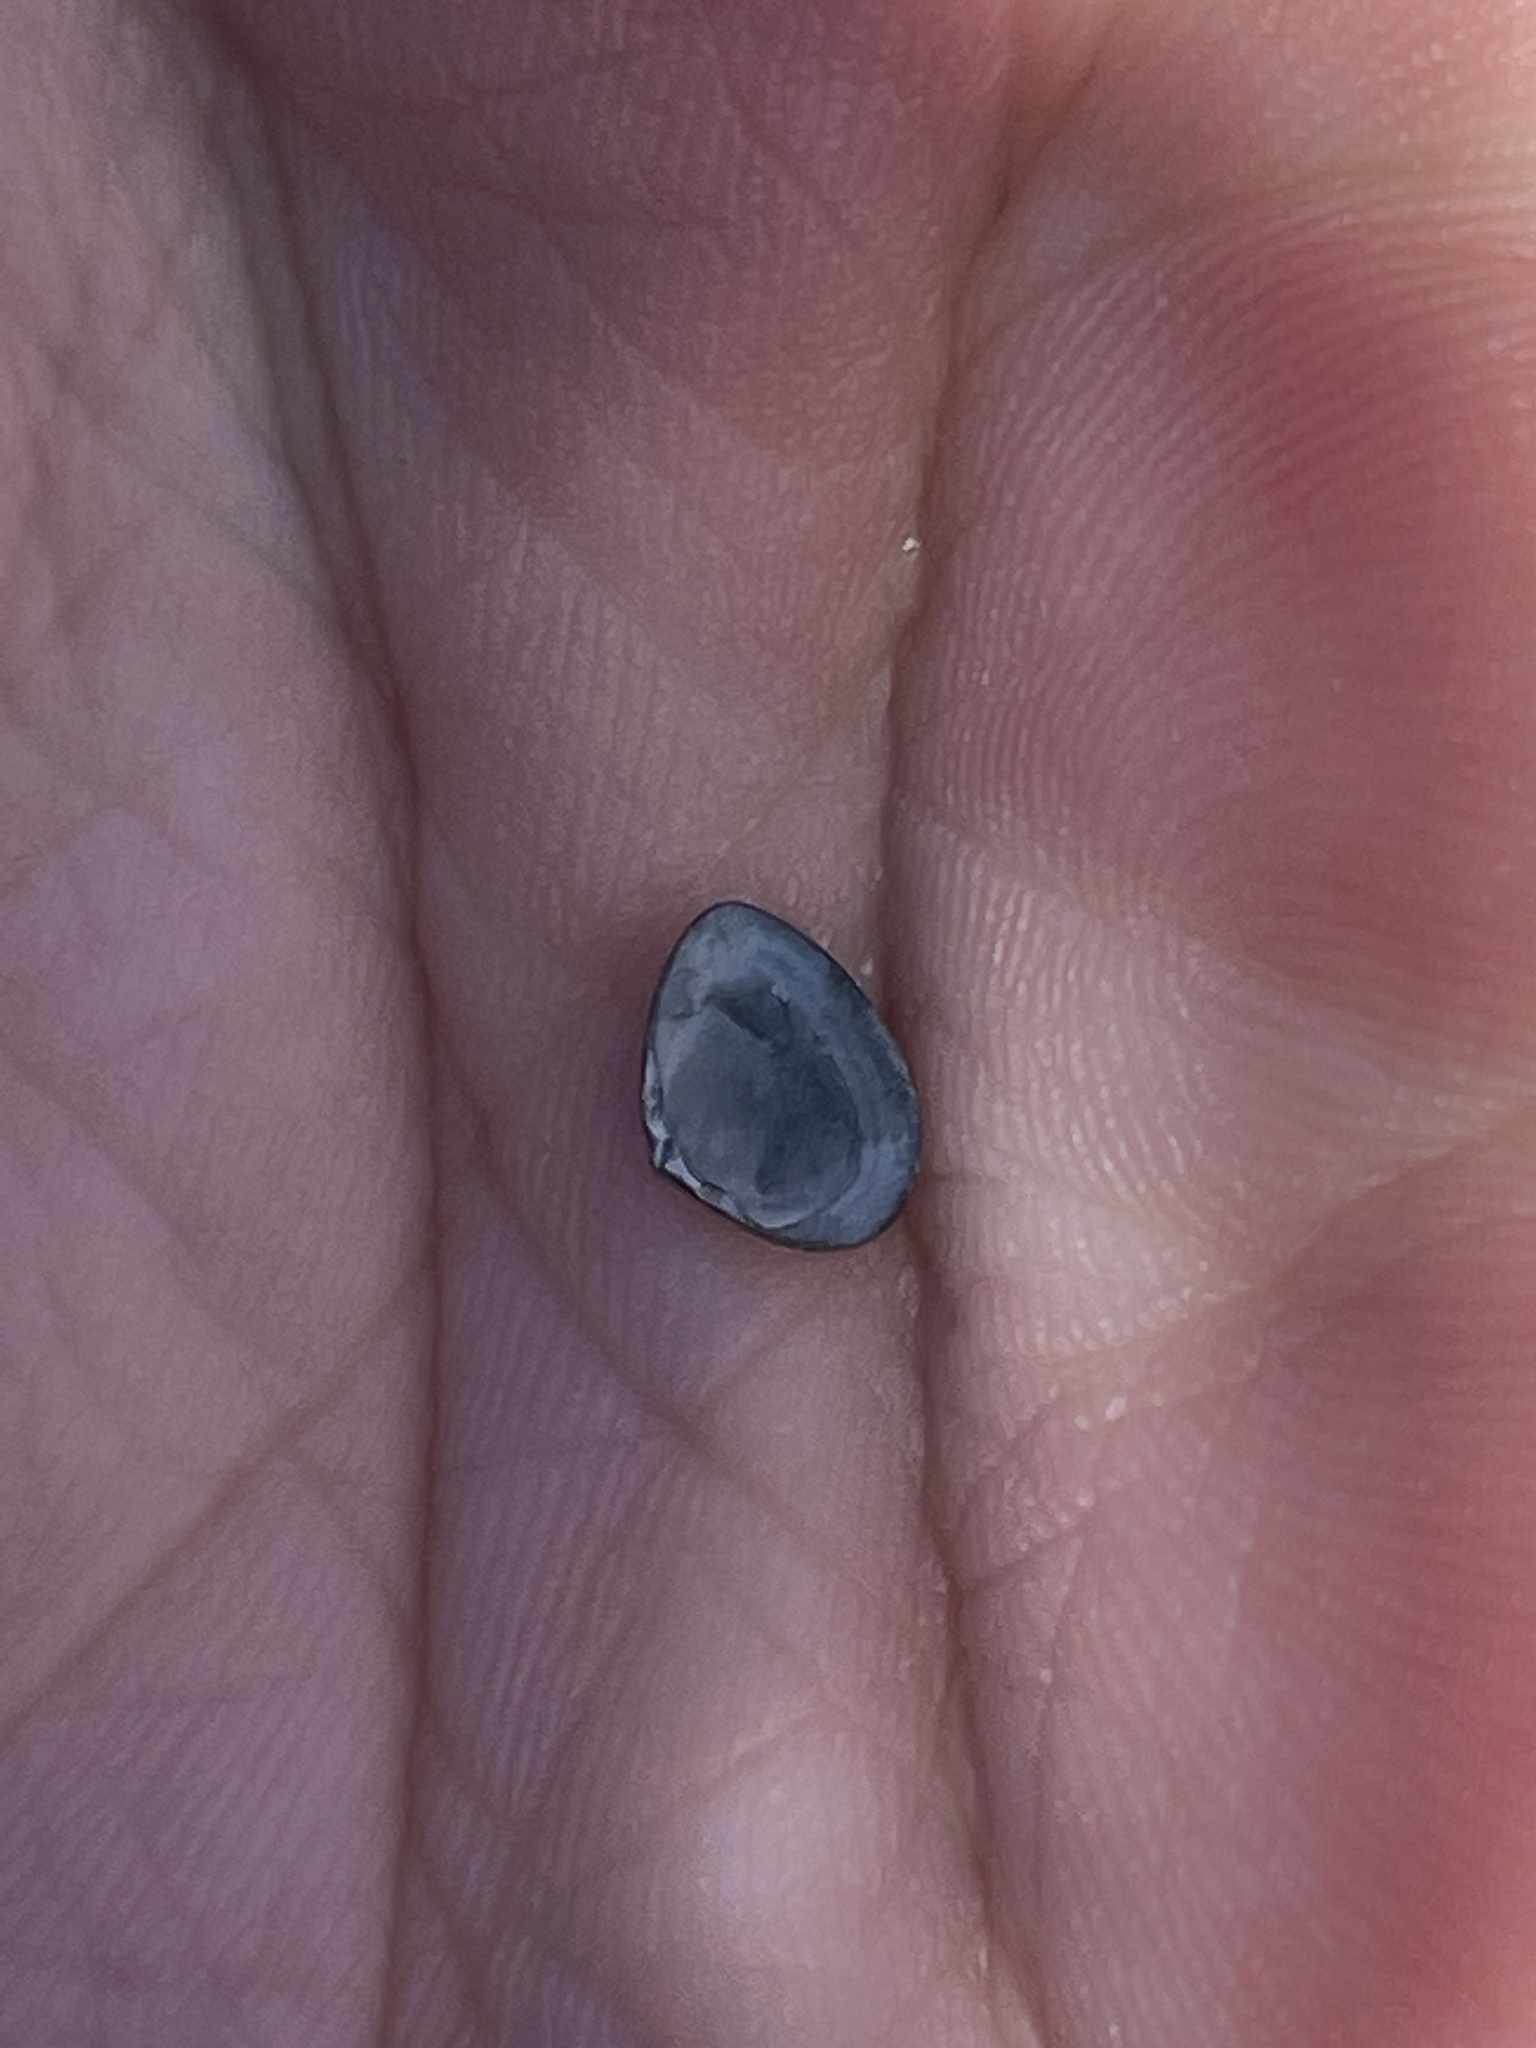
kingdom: Animalia
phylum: Mollusca
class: Bivalvia
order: Venerida
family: Mactridae
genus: Mulinia
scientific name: Mulinia lateralis
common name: Dwarf surfclam
